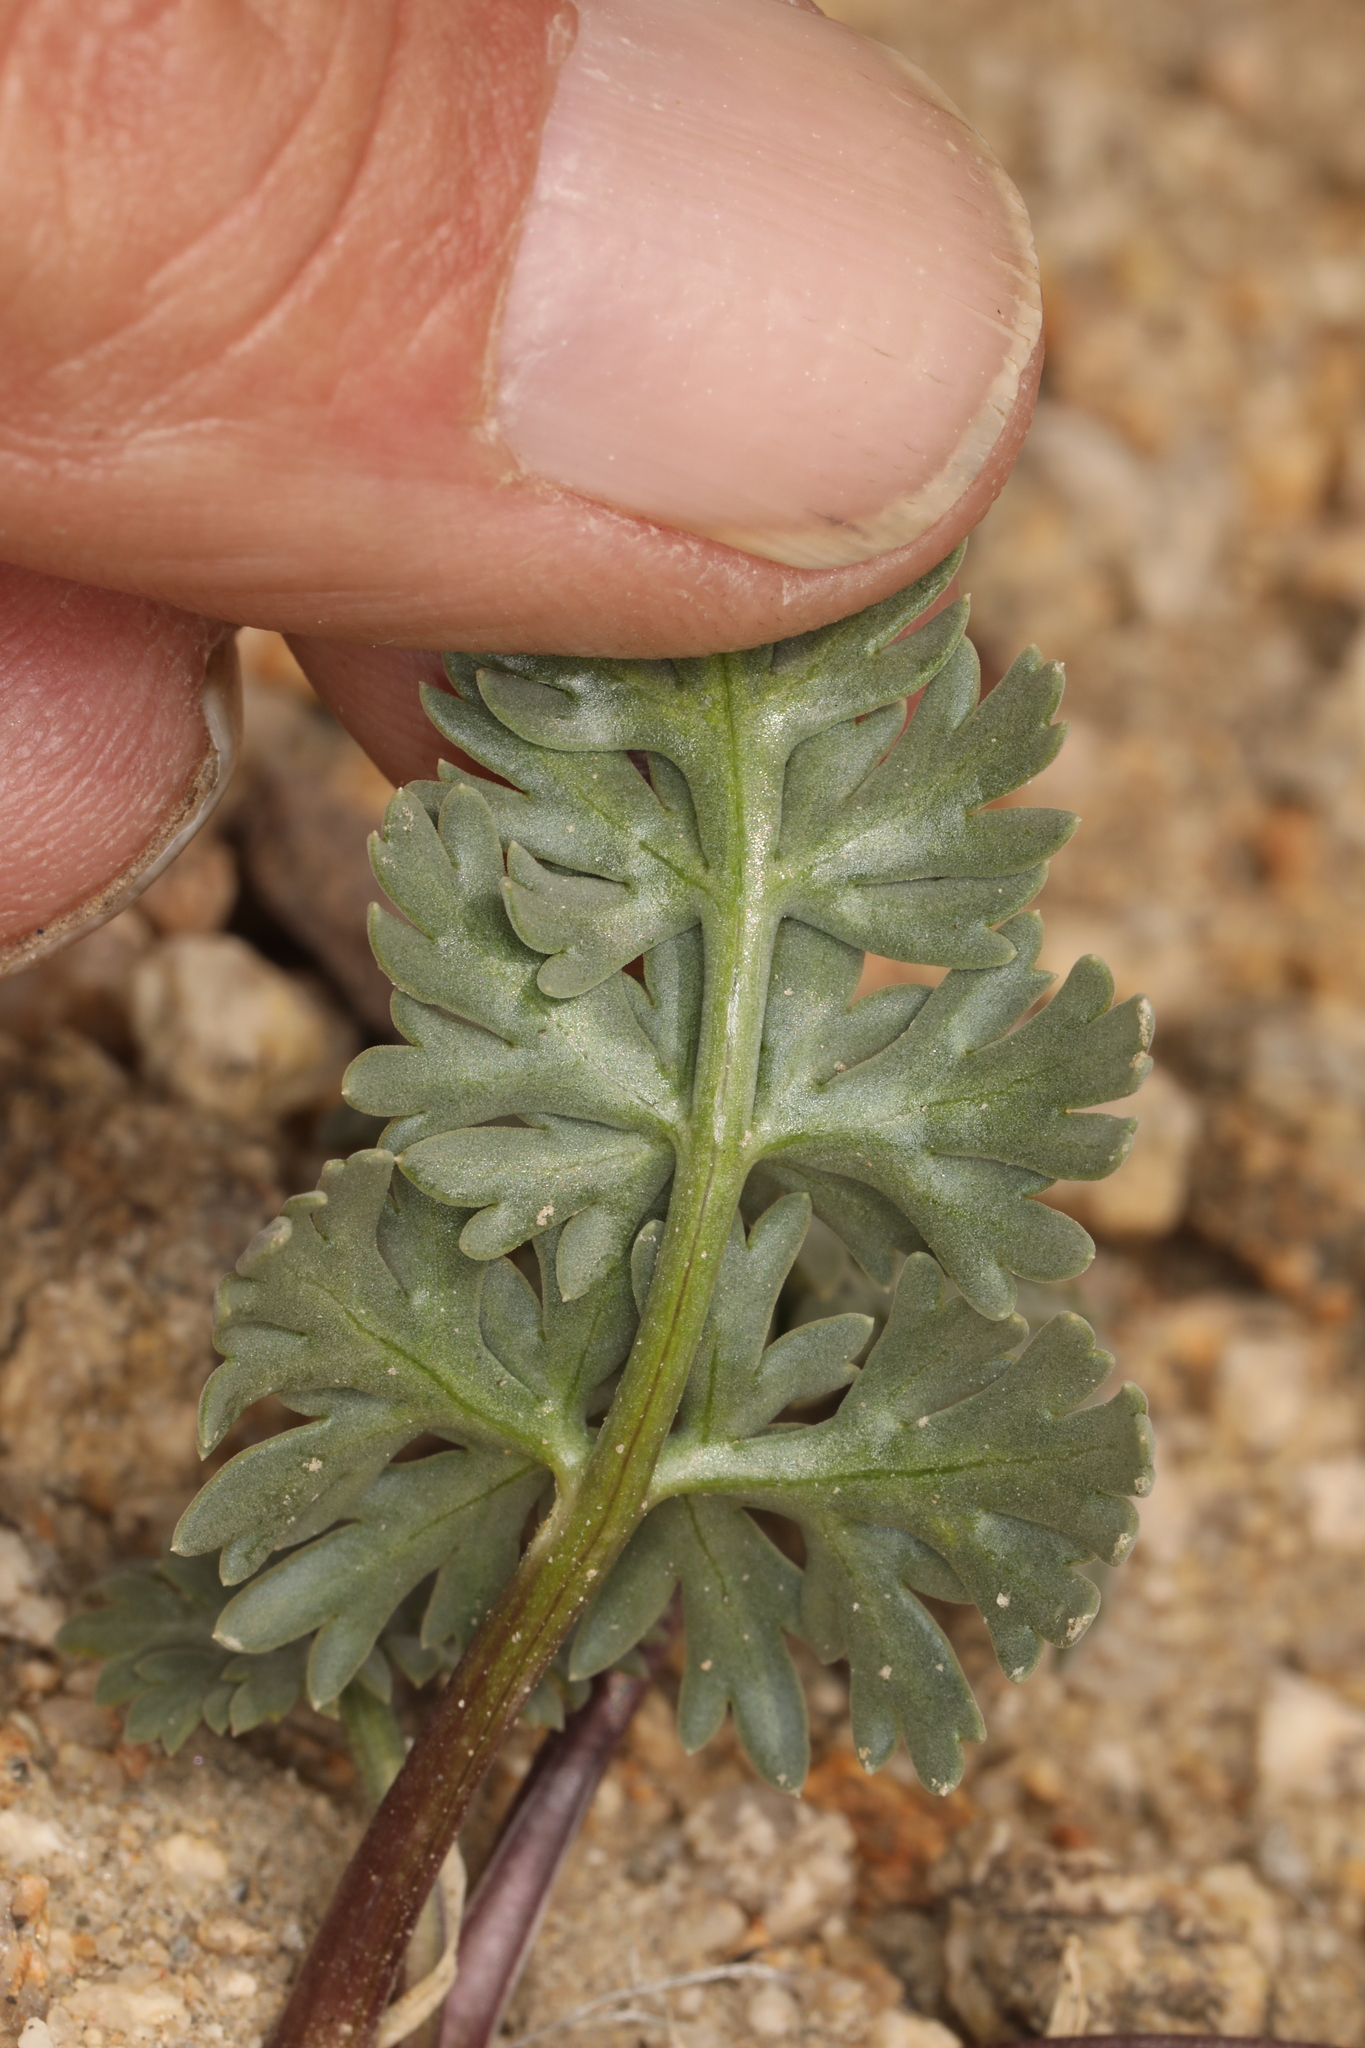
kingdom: Plantae
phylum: Tracheophyta
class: Magnoliopsida
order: Apiales
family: Apiaceae
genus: Cymopterus
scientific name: Cymopterus globosus
